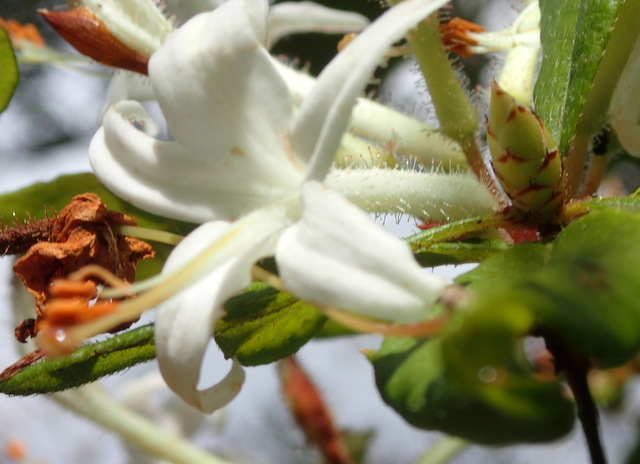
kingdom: Plantae
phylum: Tracheophyta
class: Magnoliopsida
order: Ericales
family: Ericaceae
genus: Rhododendron
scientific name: Rhododendron serrulatum
